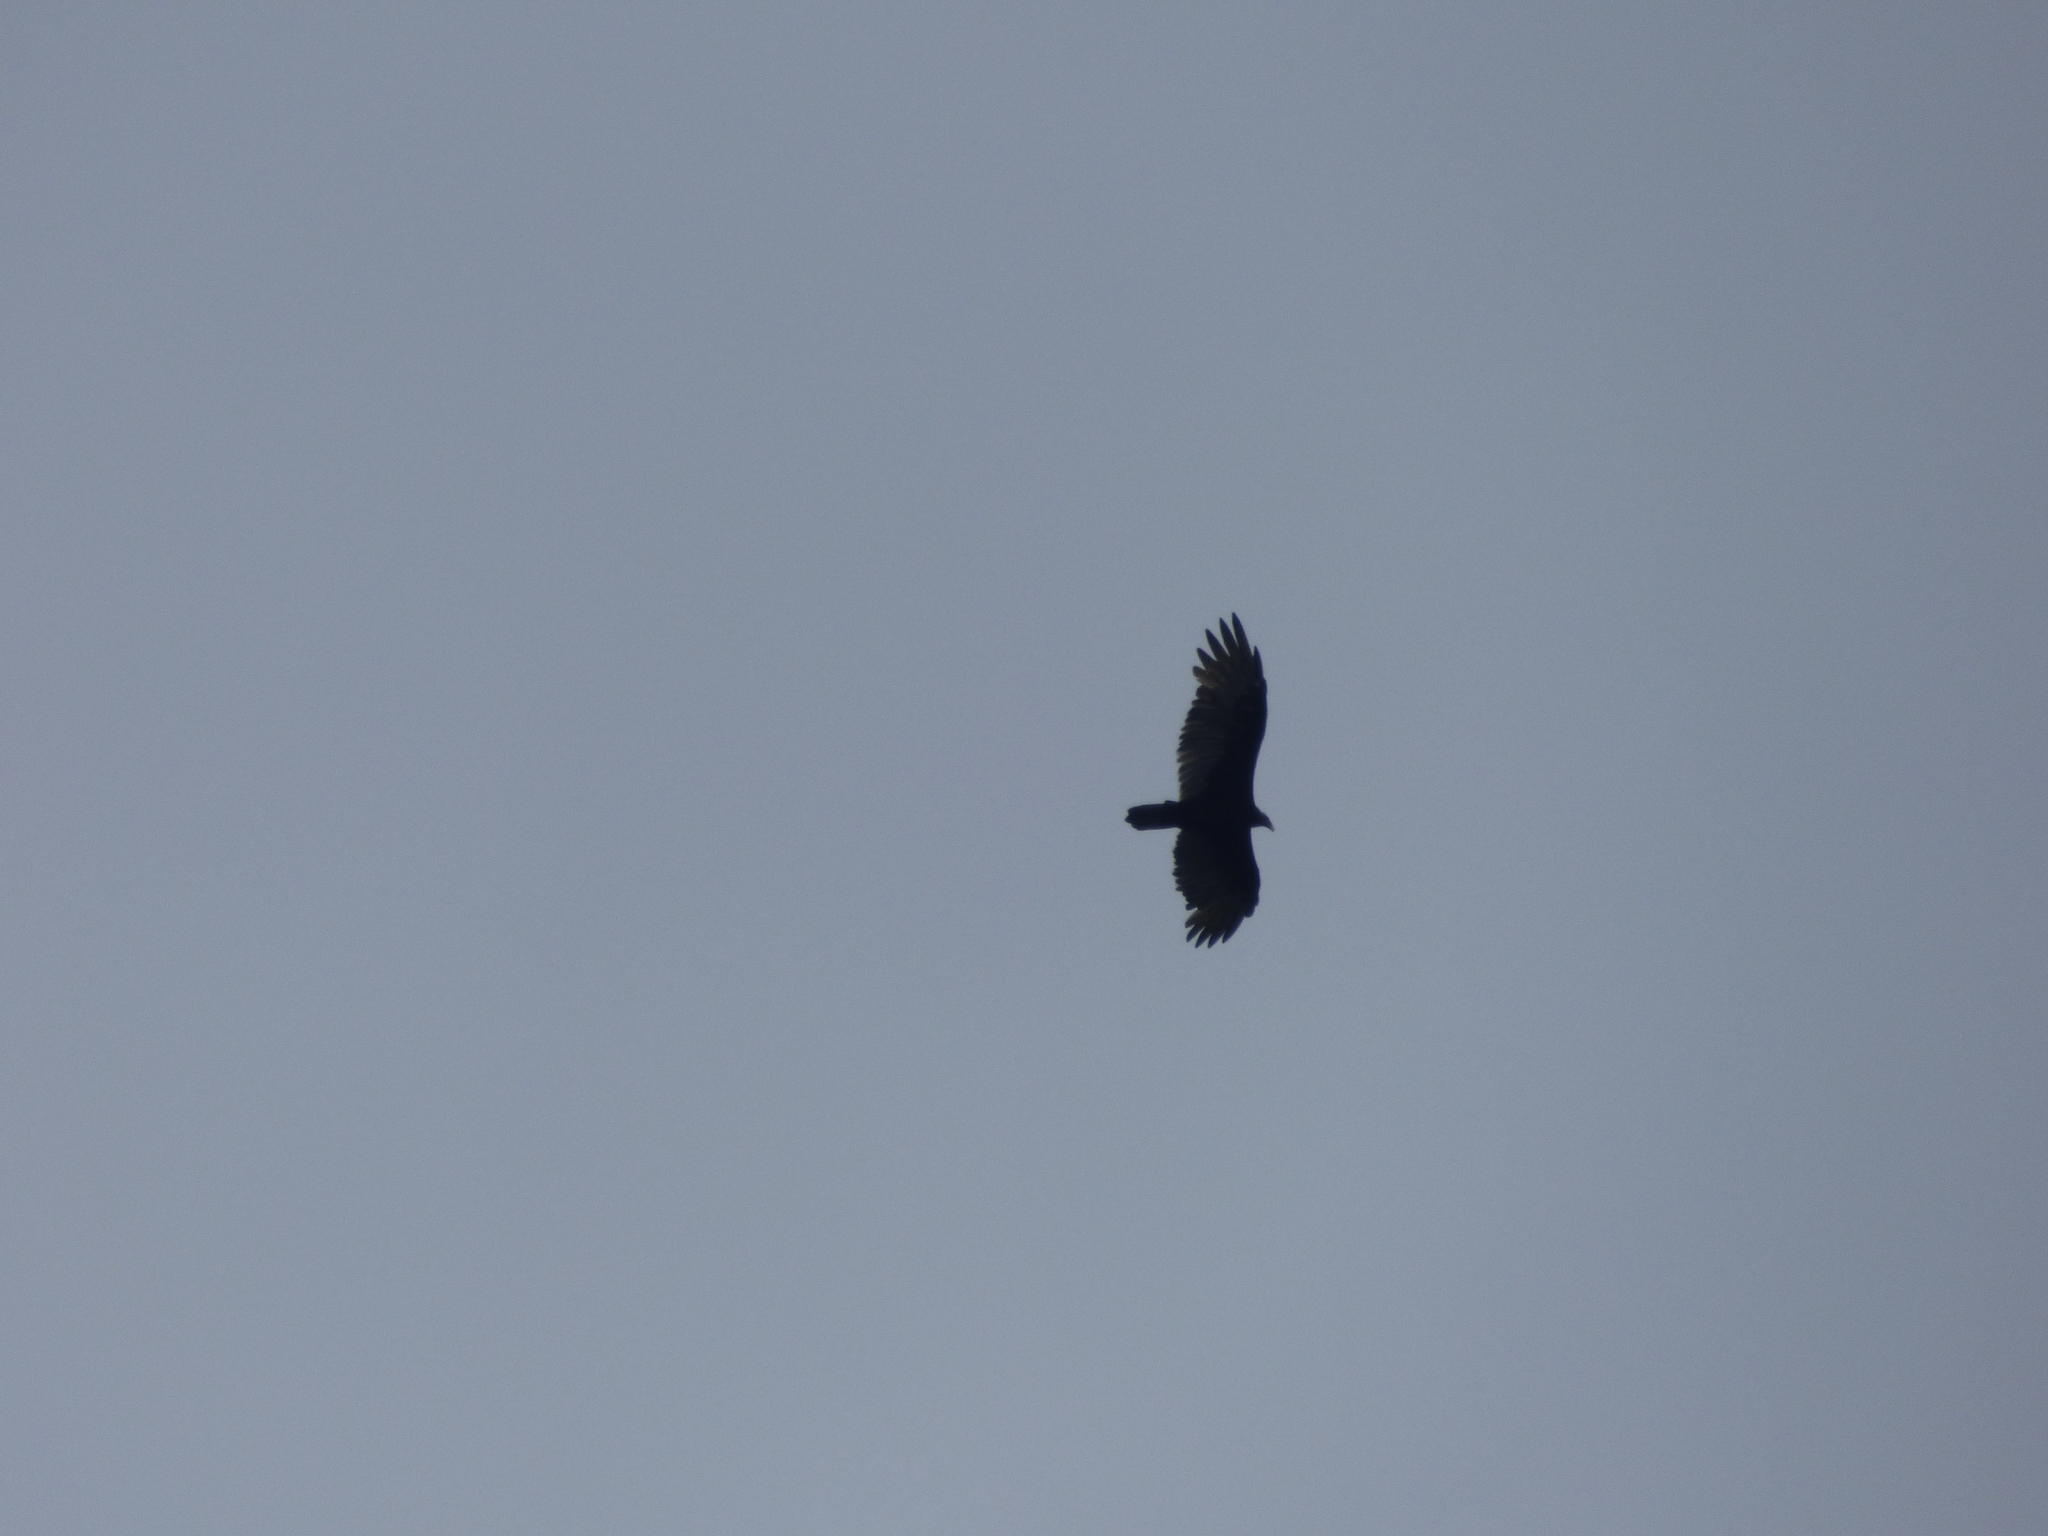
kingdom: Animalia
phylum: Chordata
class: Aves
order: Accipitriformes
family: Cathartidae
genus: Cathartes
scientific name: Cathartes aura
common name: Turkey vulture
